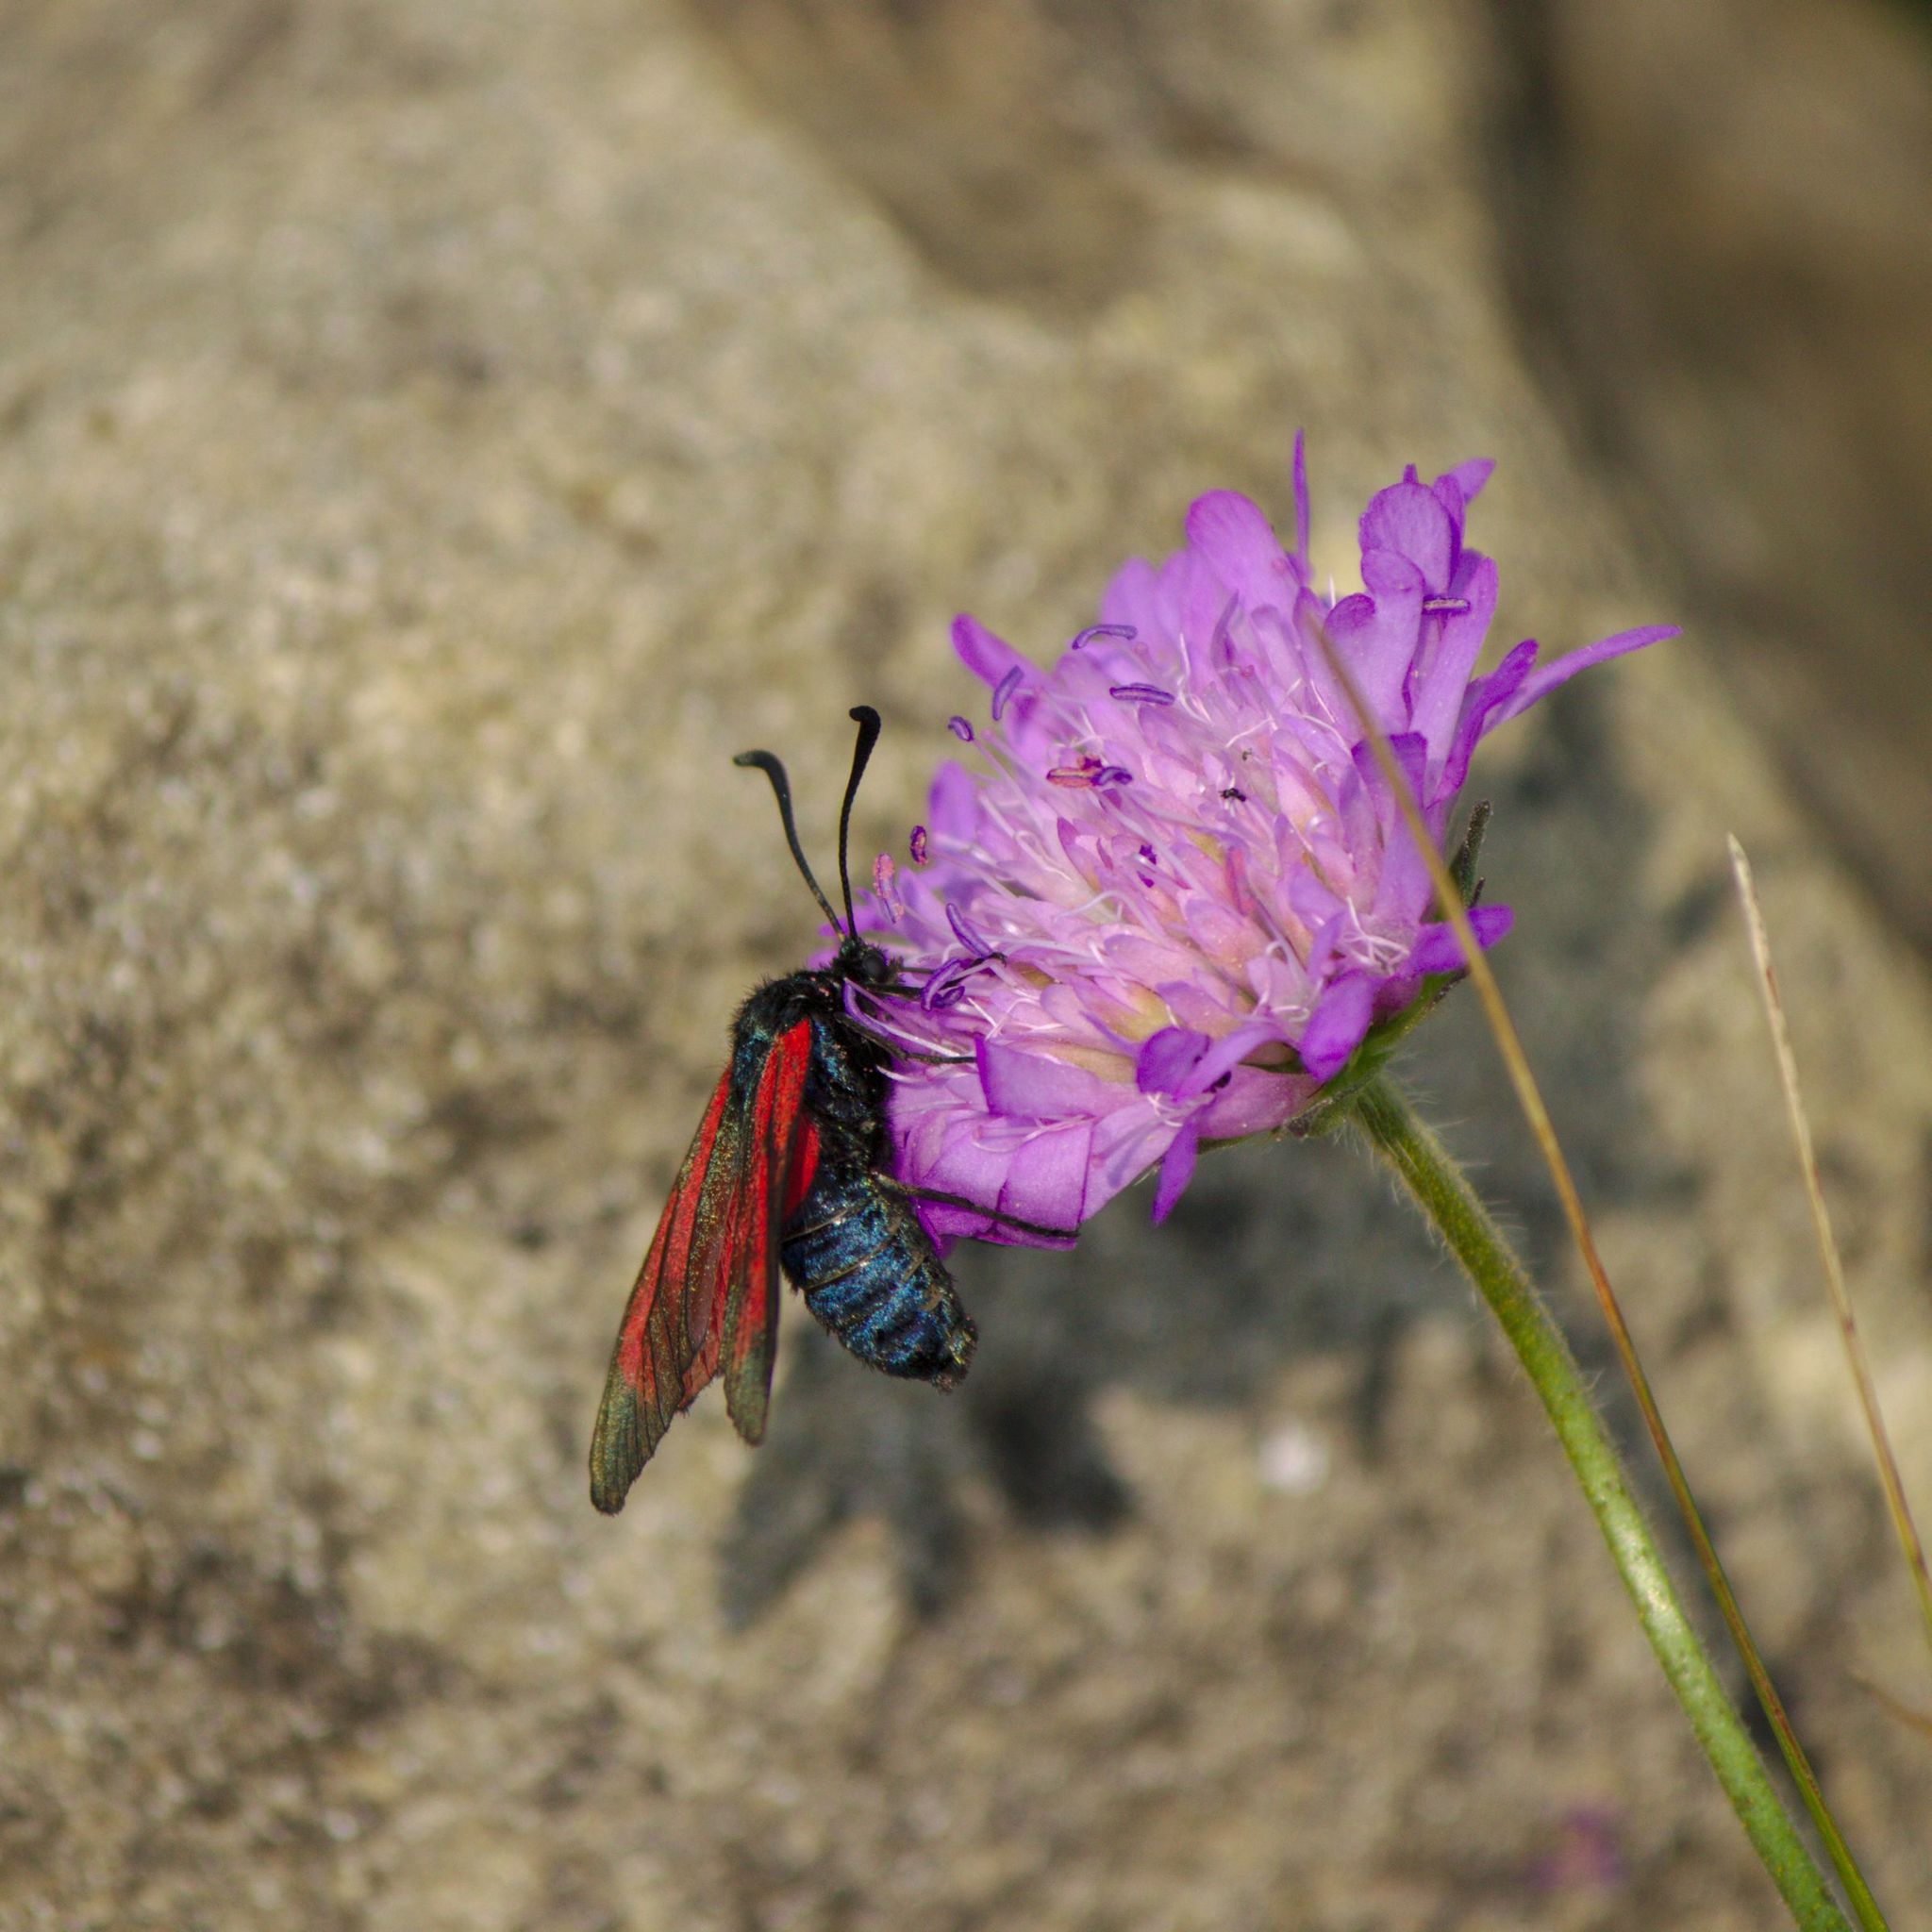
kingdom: Animalia
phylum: Arthropoda
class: Insecta
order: Lepidoptera
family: Zygaenidae
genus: Zygaena
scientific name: Zygaena osterodensis
